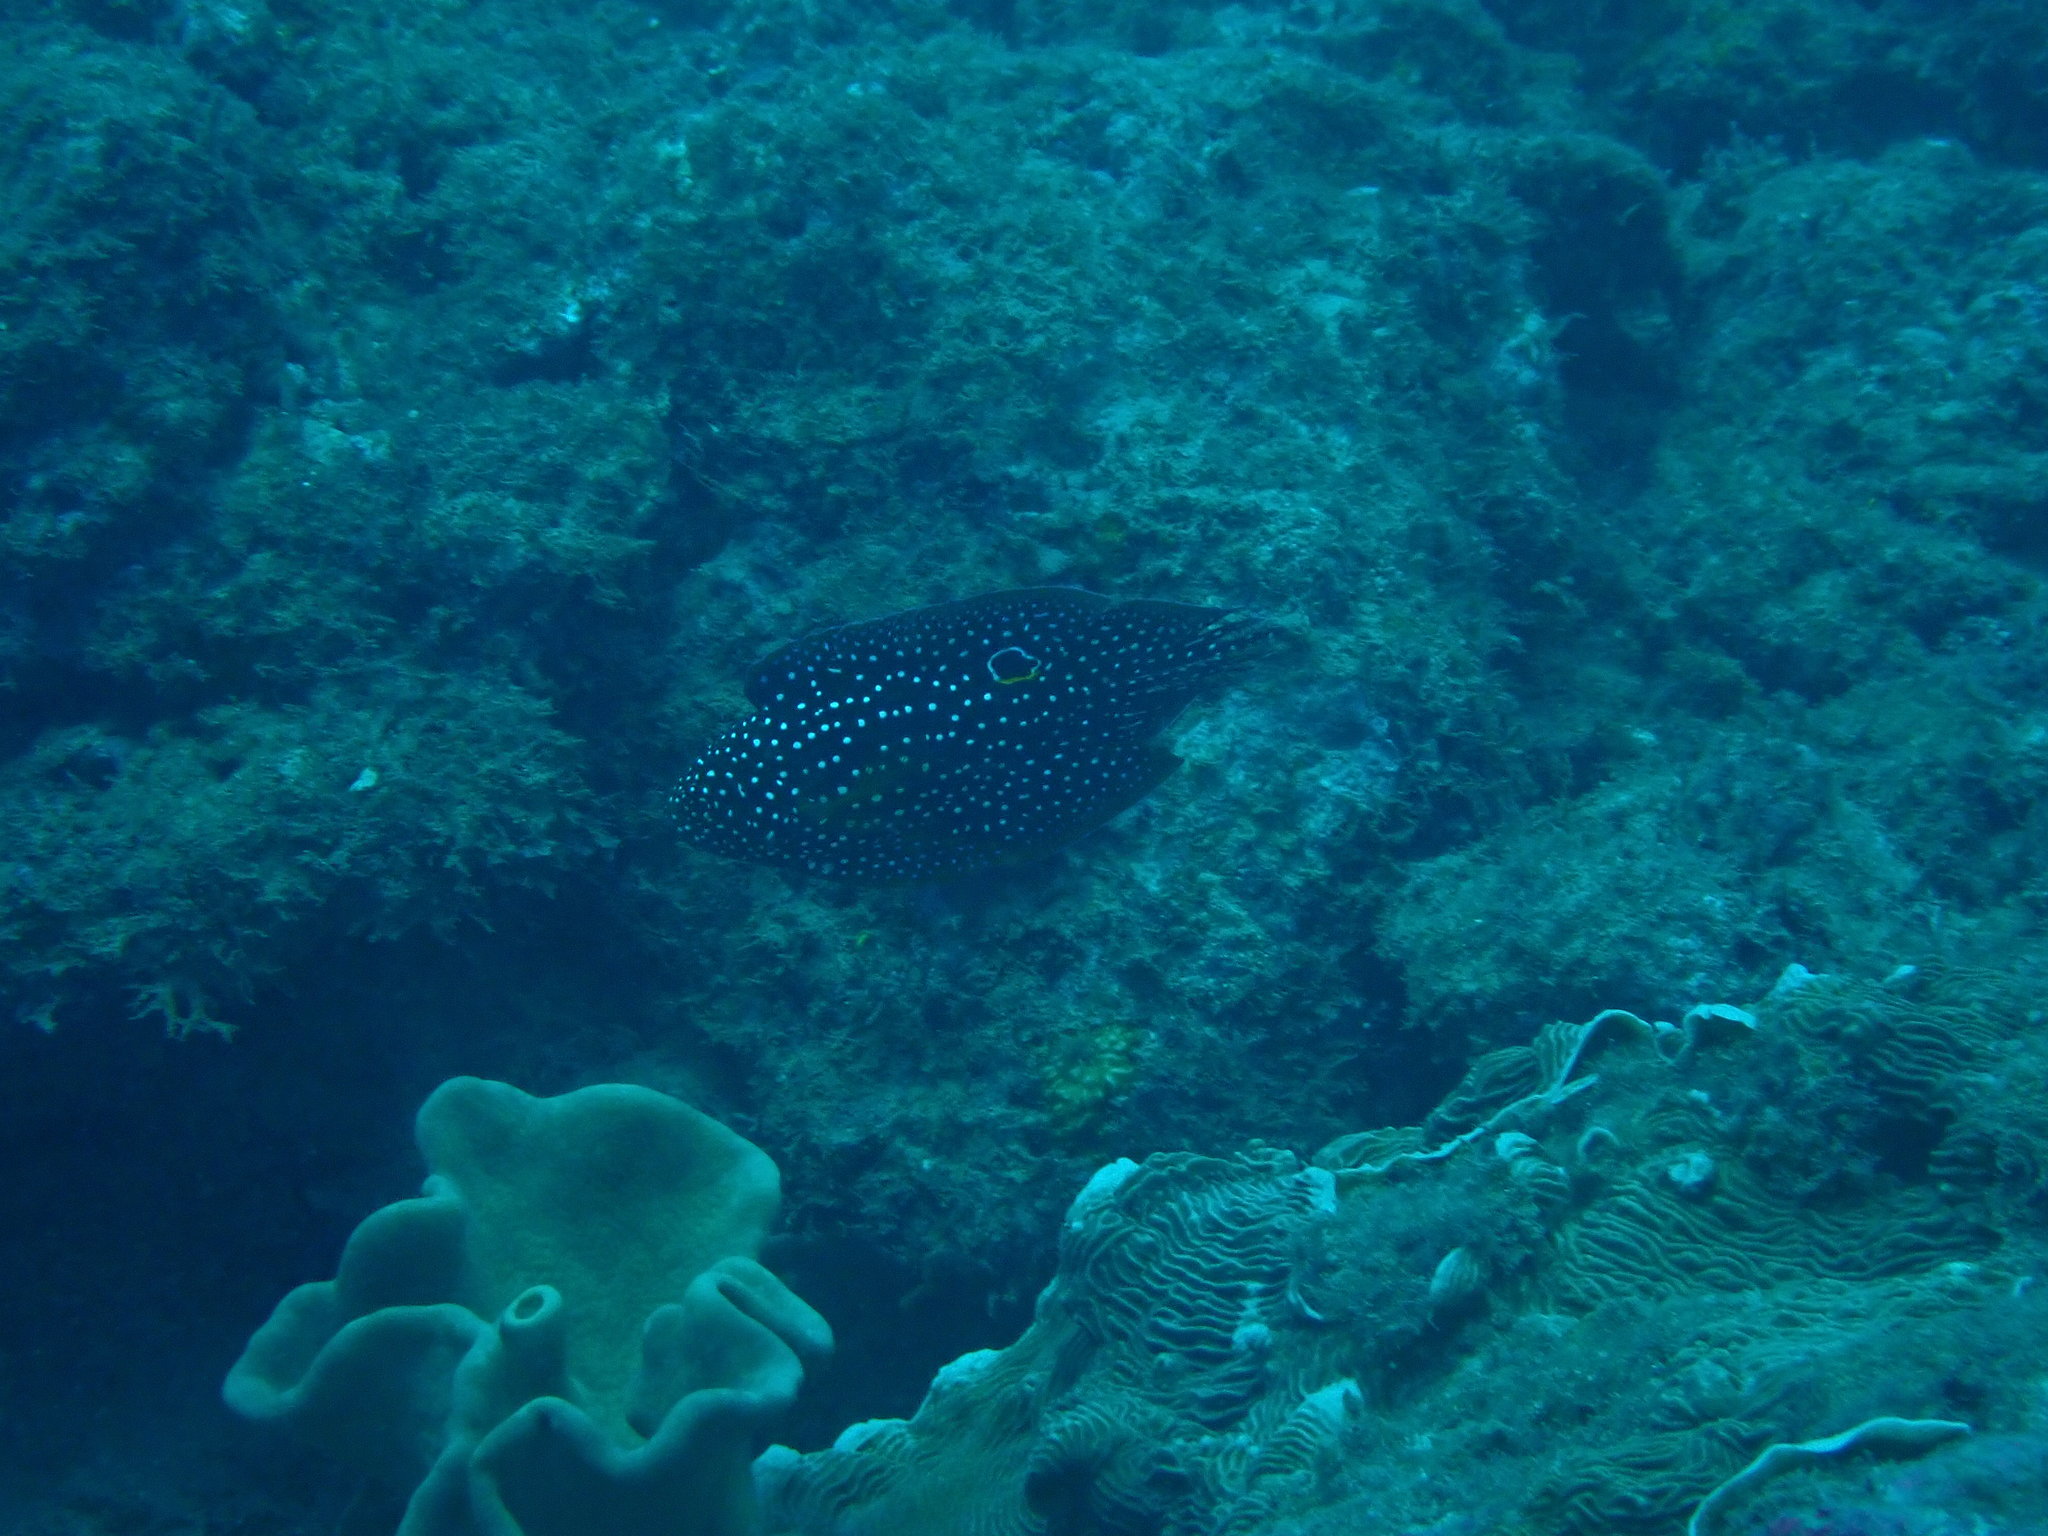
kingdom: Animalia
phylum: Chordata
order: Perciformes
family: Plesiopidae
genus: Calloplesiops
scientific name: Calloplesiops altivelis
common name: Comet
